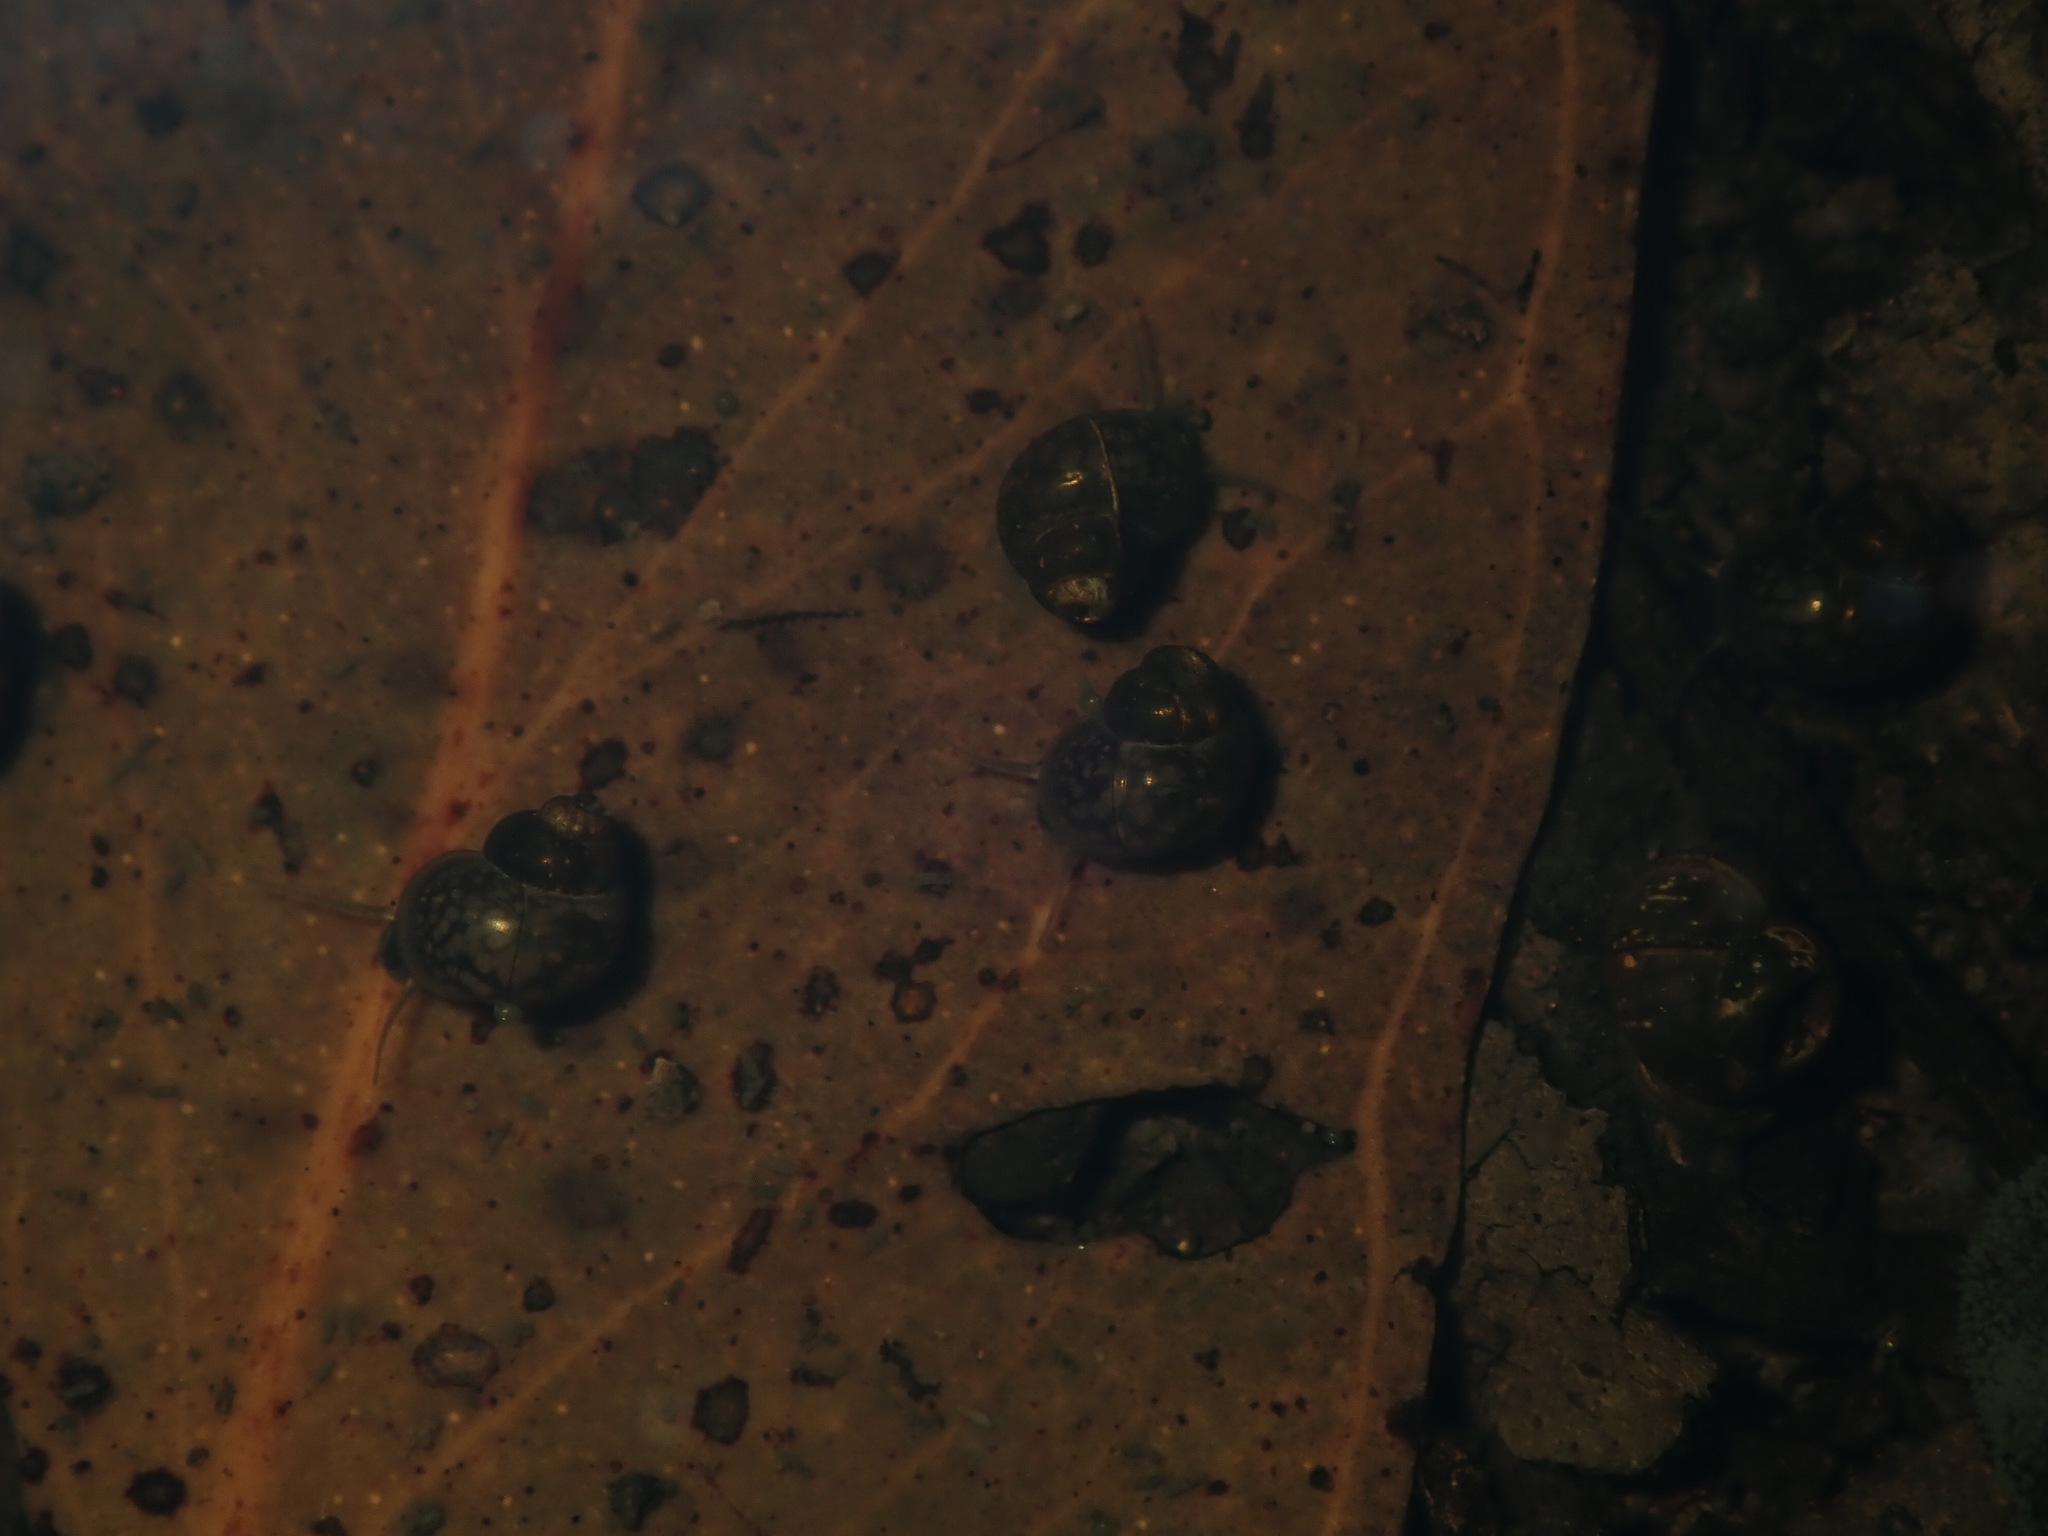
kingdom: Animalia
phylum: Mollusca
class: Gastropoda
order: Littorinimorpha
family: Bithyniidae
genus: Gabbia
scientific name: Gabbia vertiginosa
